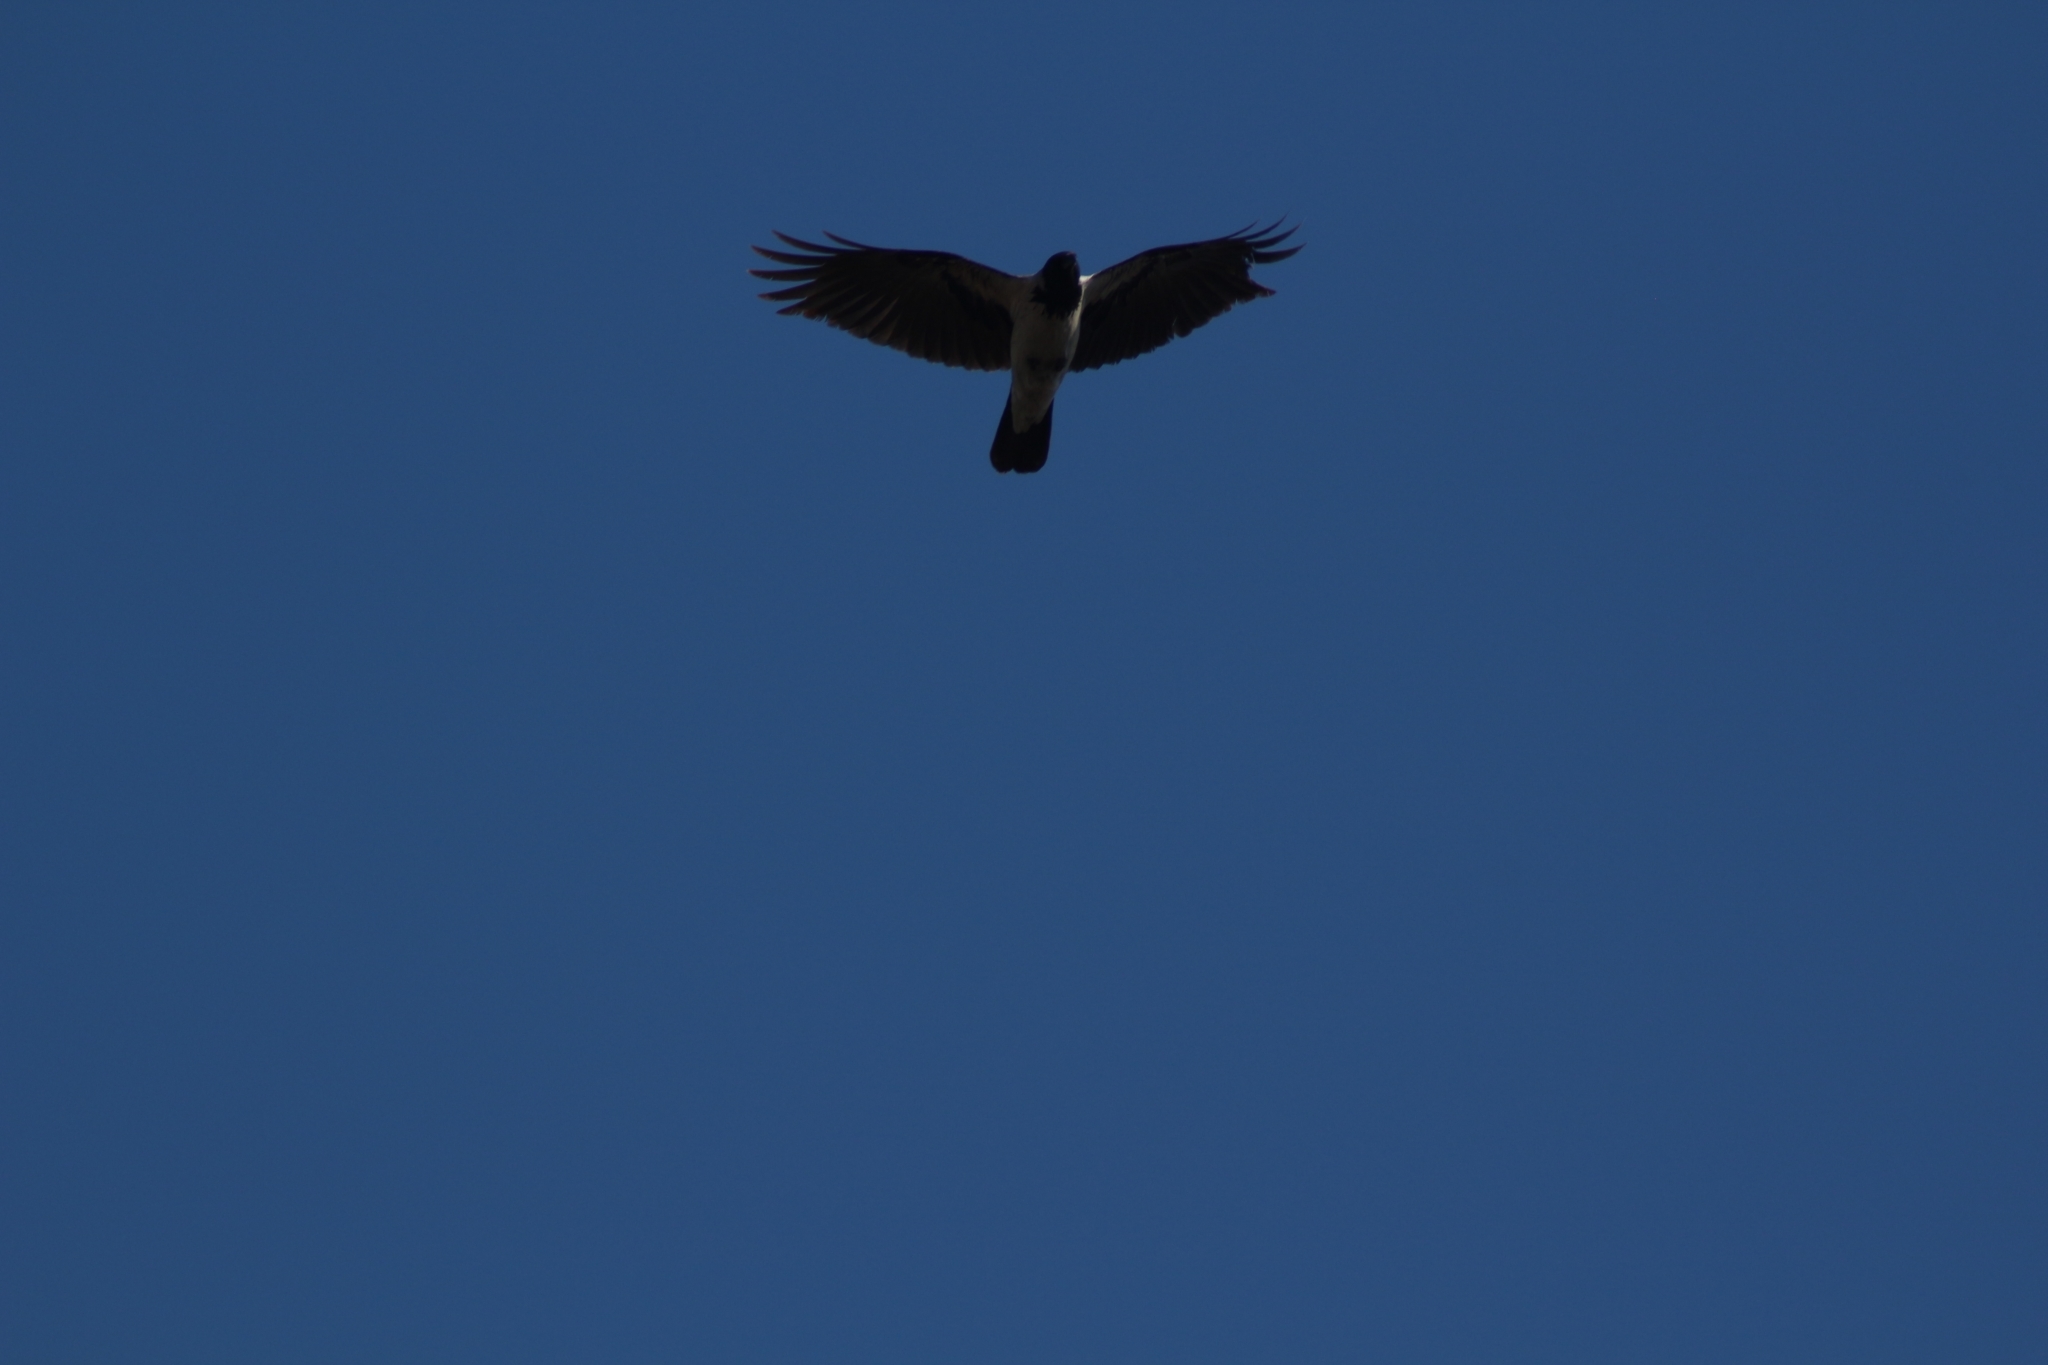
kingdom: Animalia
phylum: Chordata
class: Aves
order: Accipitriformes
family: Accipitridae
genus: Milvus
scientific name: Milvus migrans
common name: Black kite
